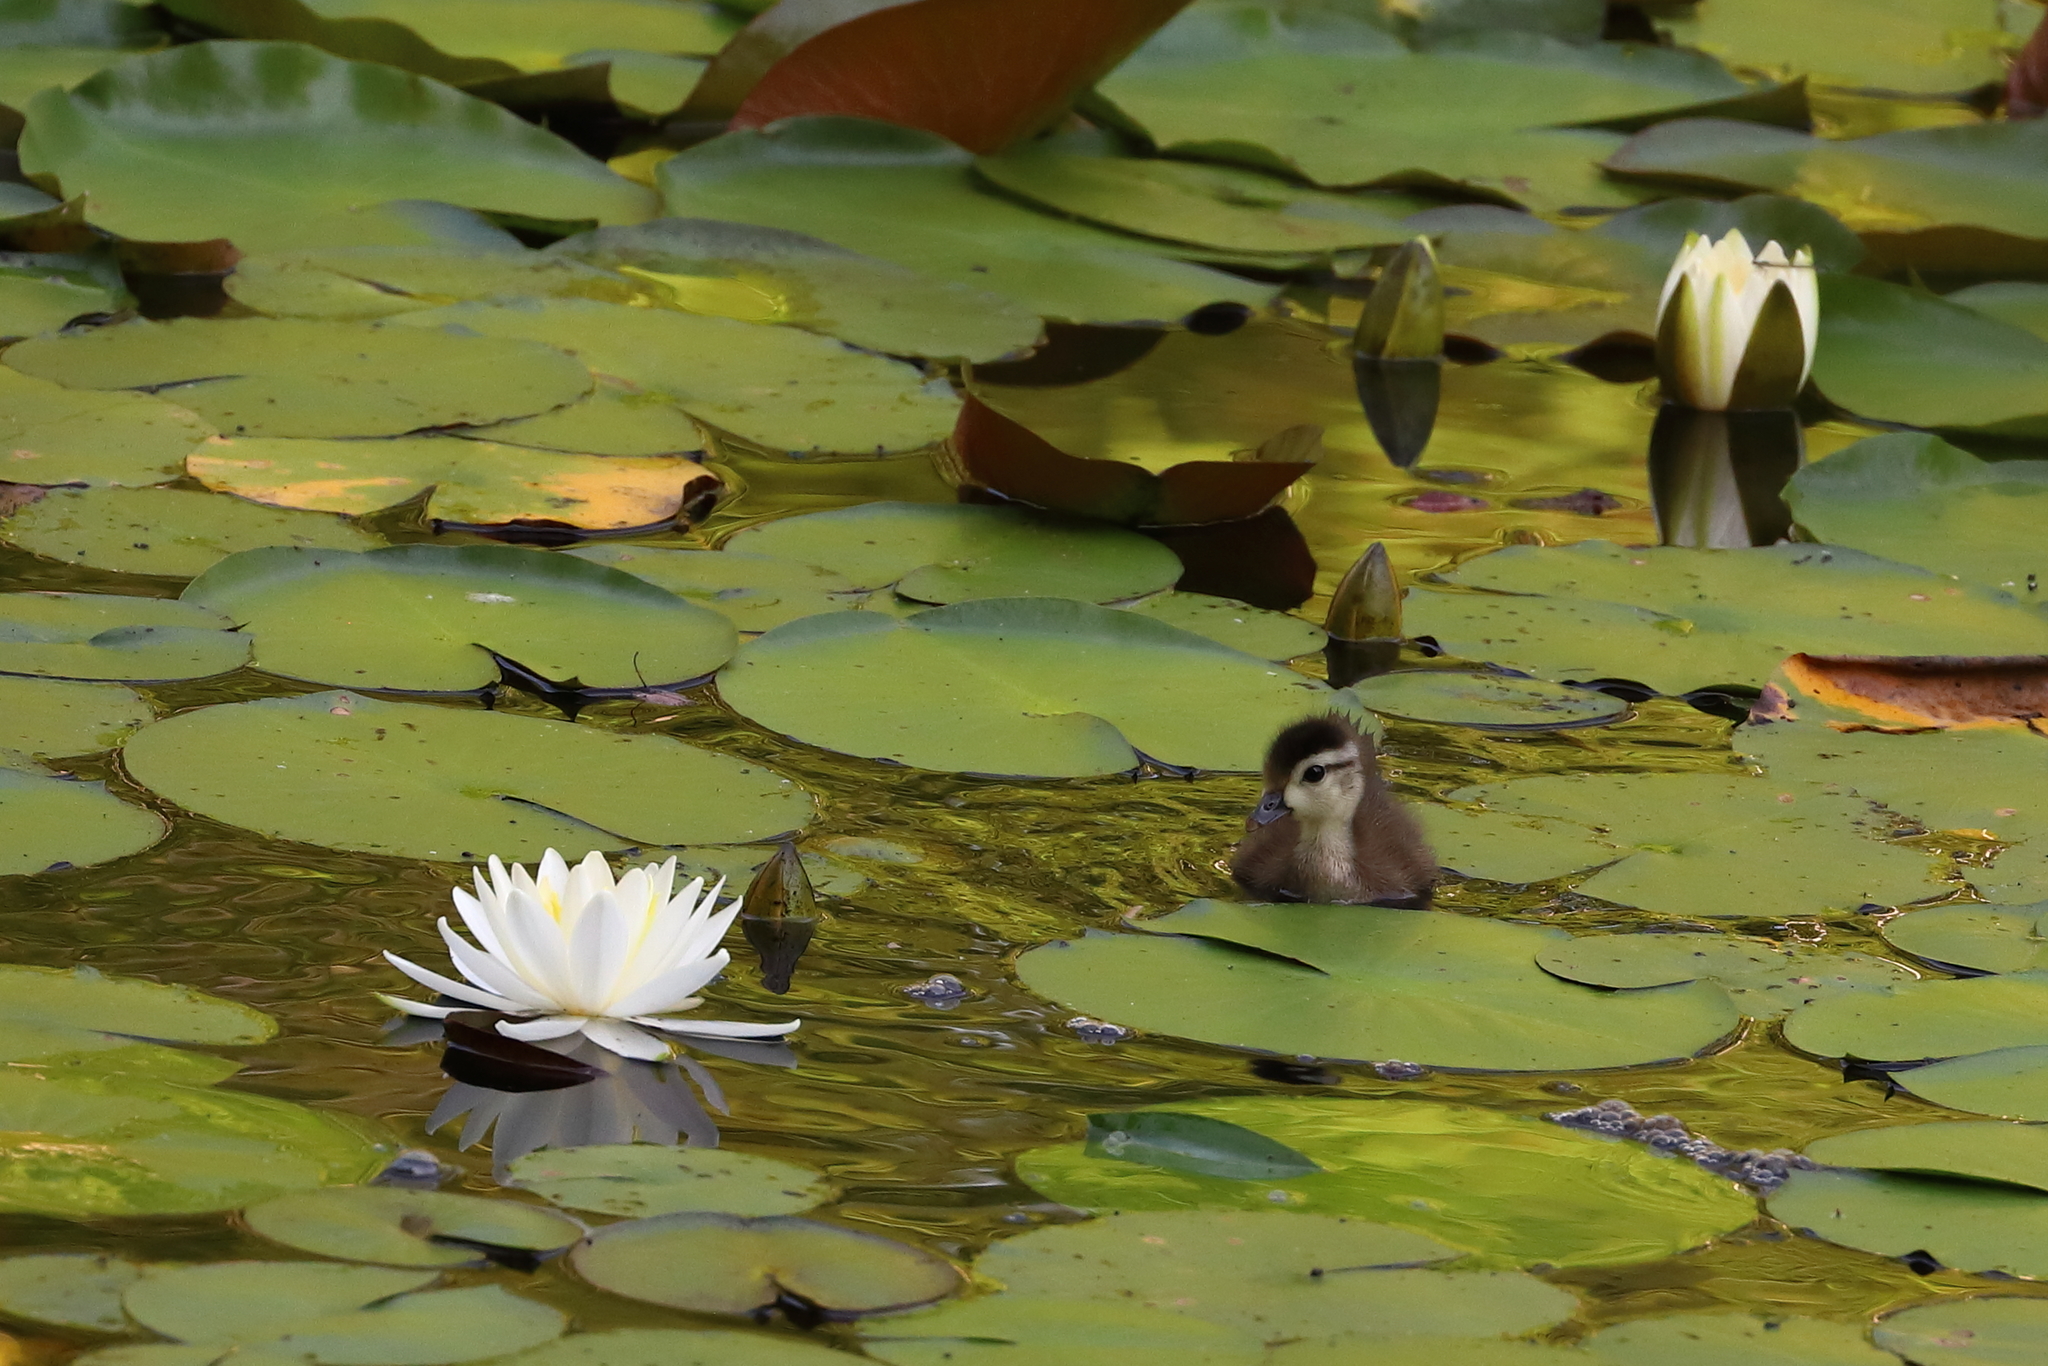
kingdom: Animalia
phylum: Chordata
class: Aves
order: Anseriformes
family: Anatidae
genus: Aix
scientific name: Aix sponsa
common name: Wood duck
